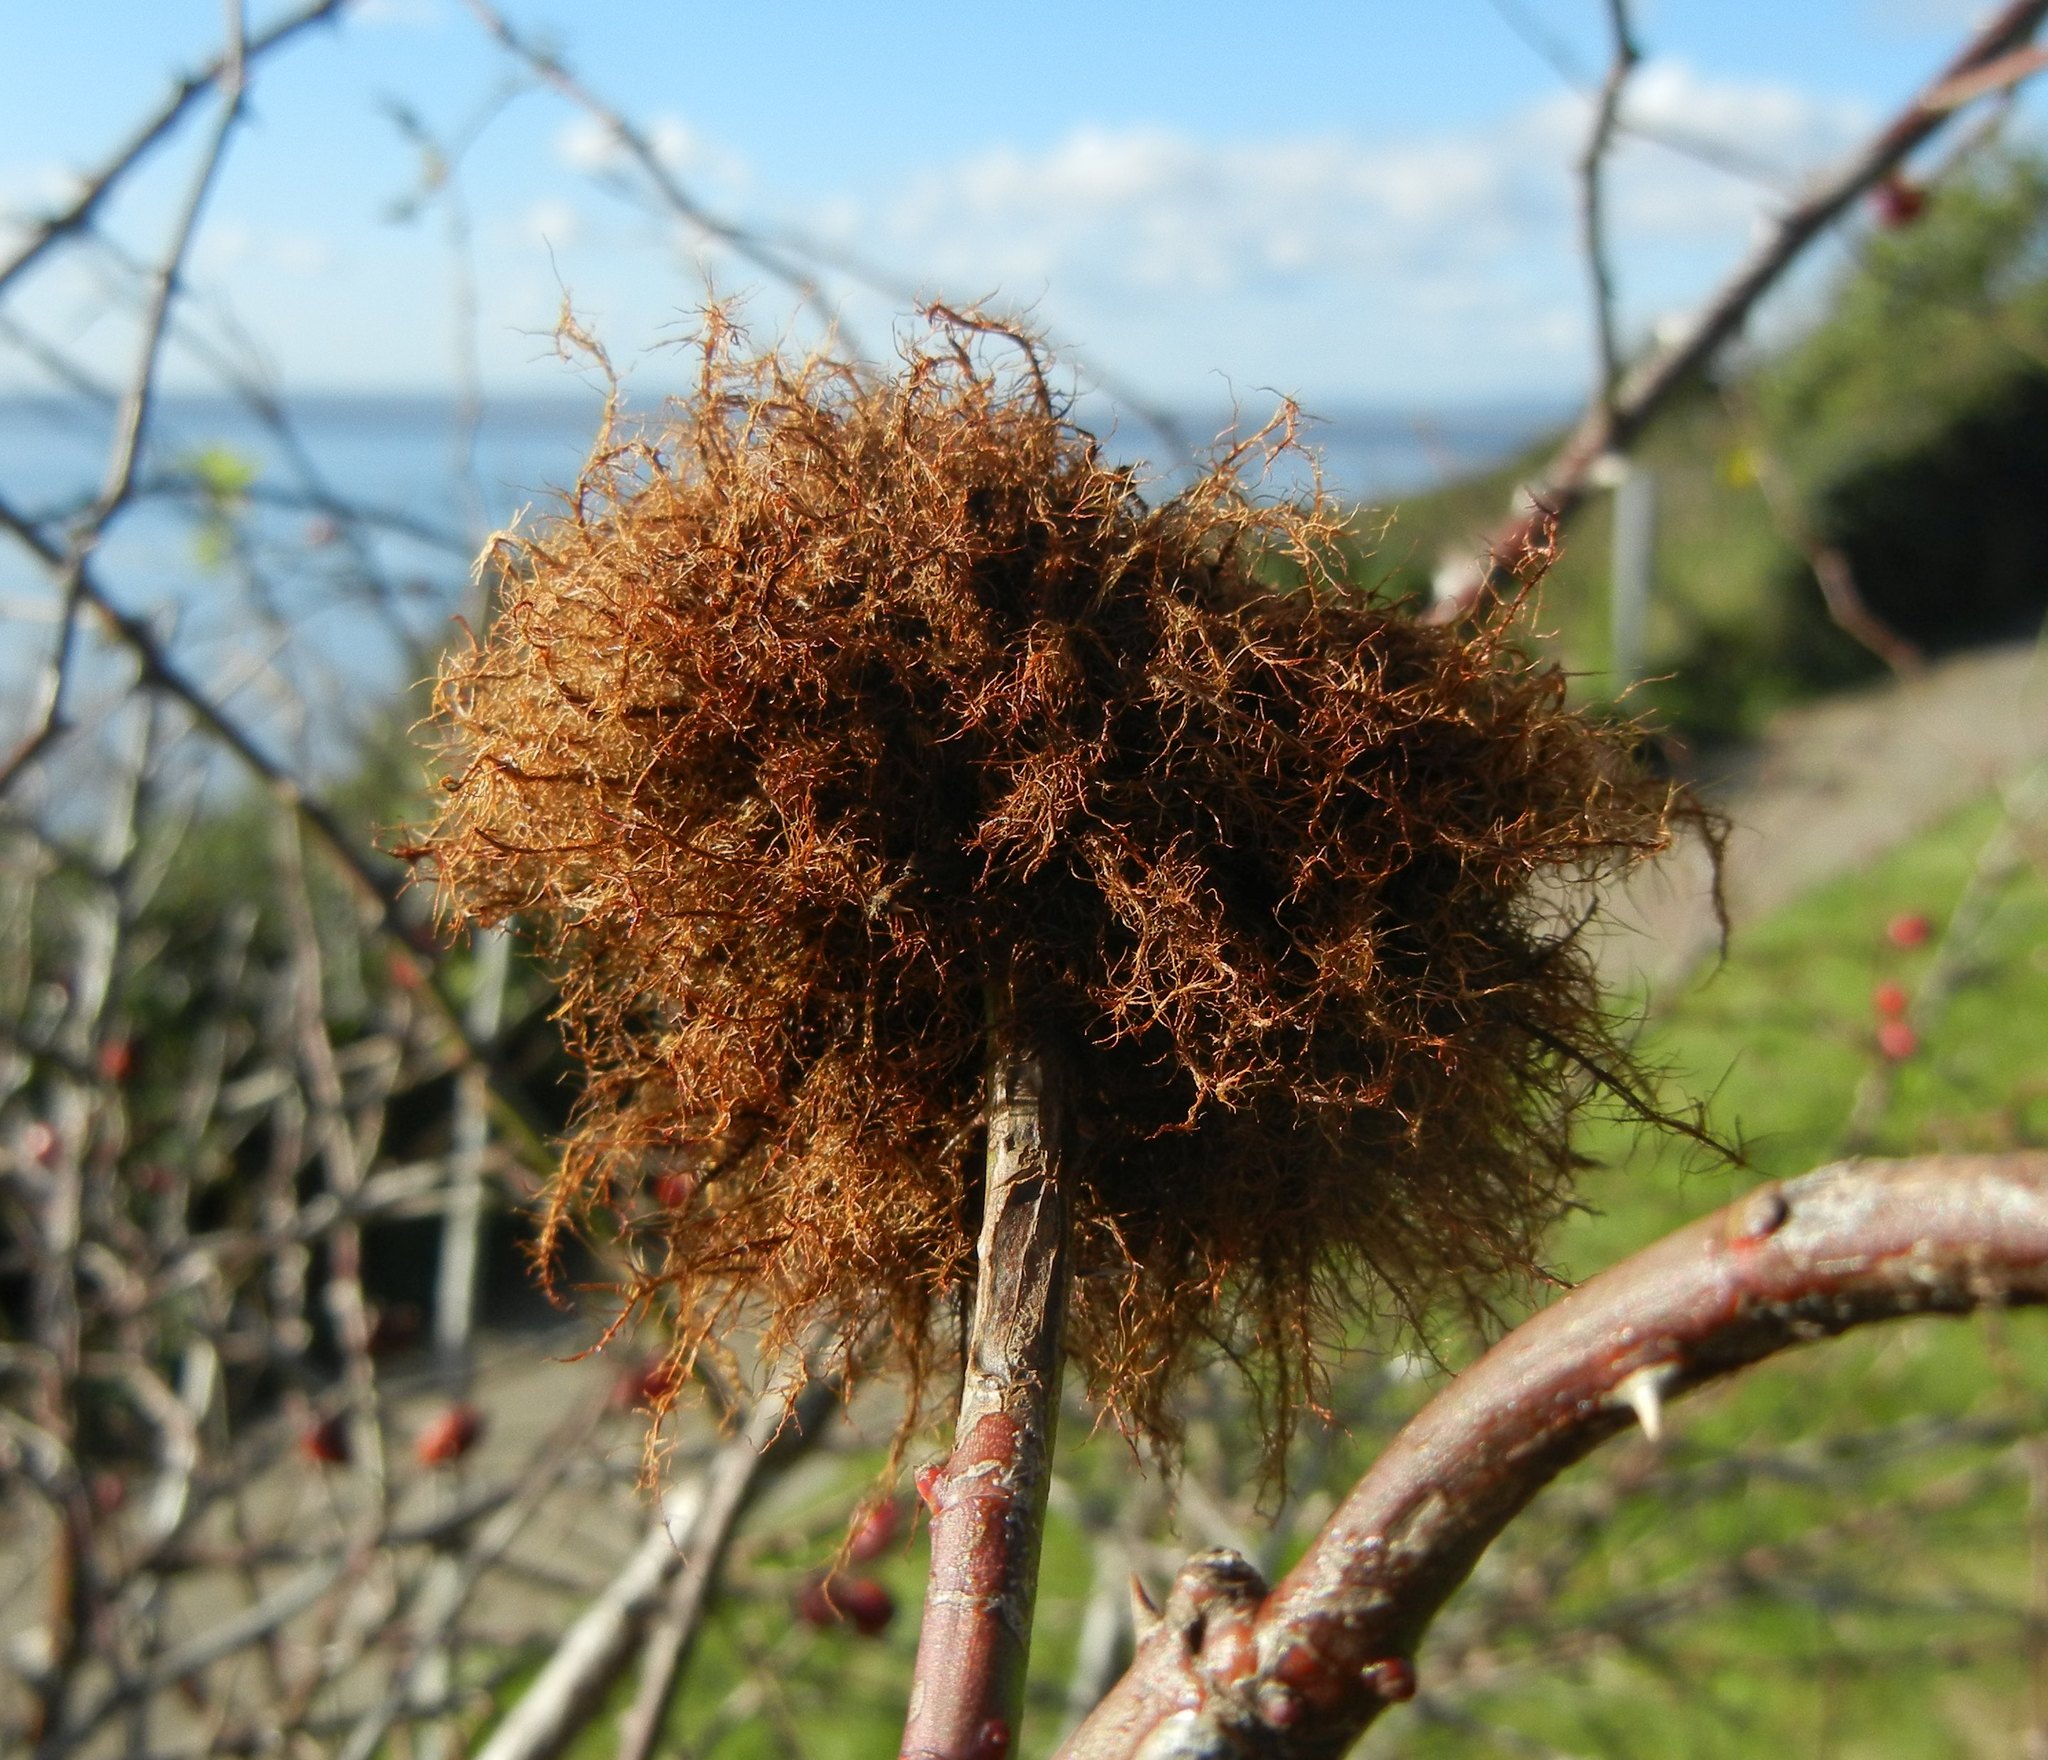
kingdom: Animalia
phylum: Arthropoda
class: Insecta
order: Hymenoptera
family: Cynipidae
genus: Diplolepis
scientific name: Diplolepis rosae
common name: Bedeguar gall
